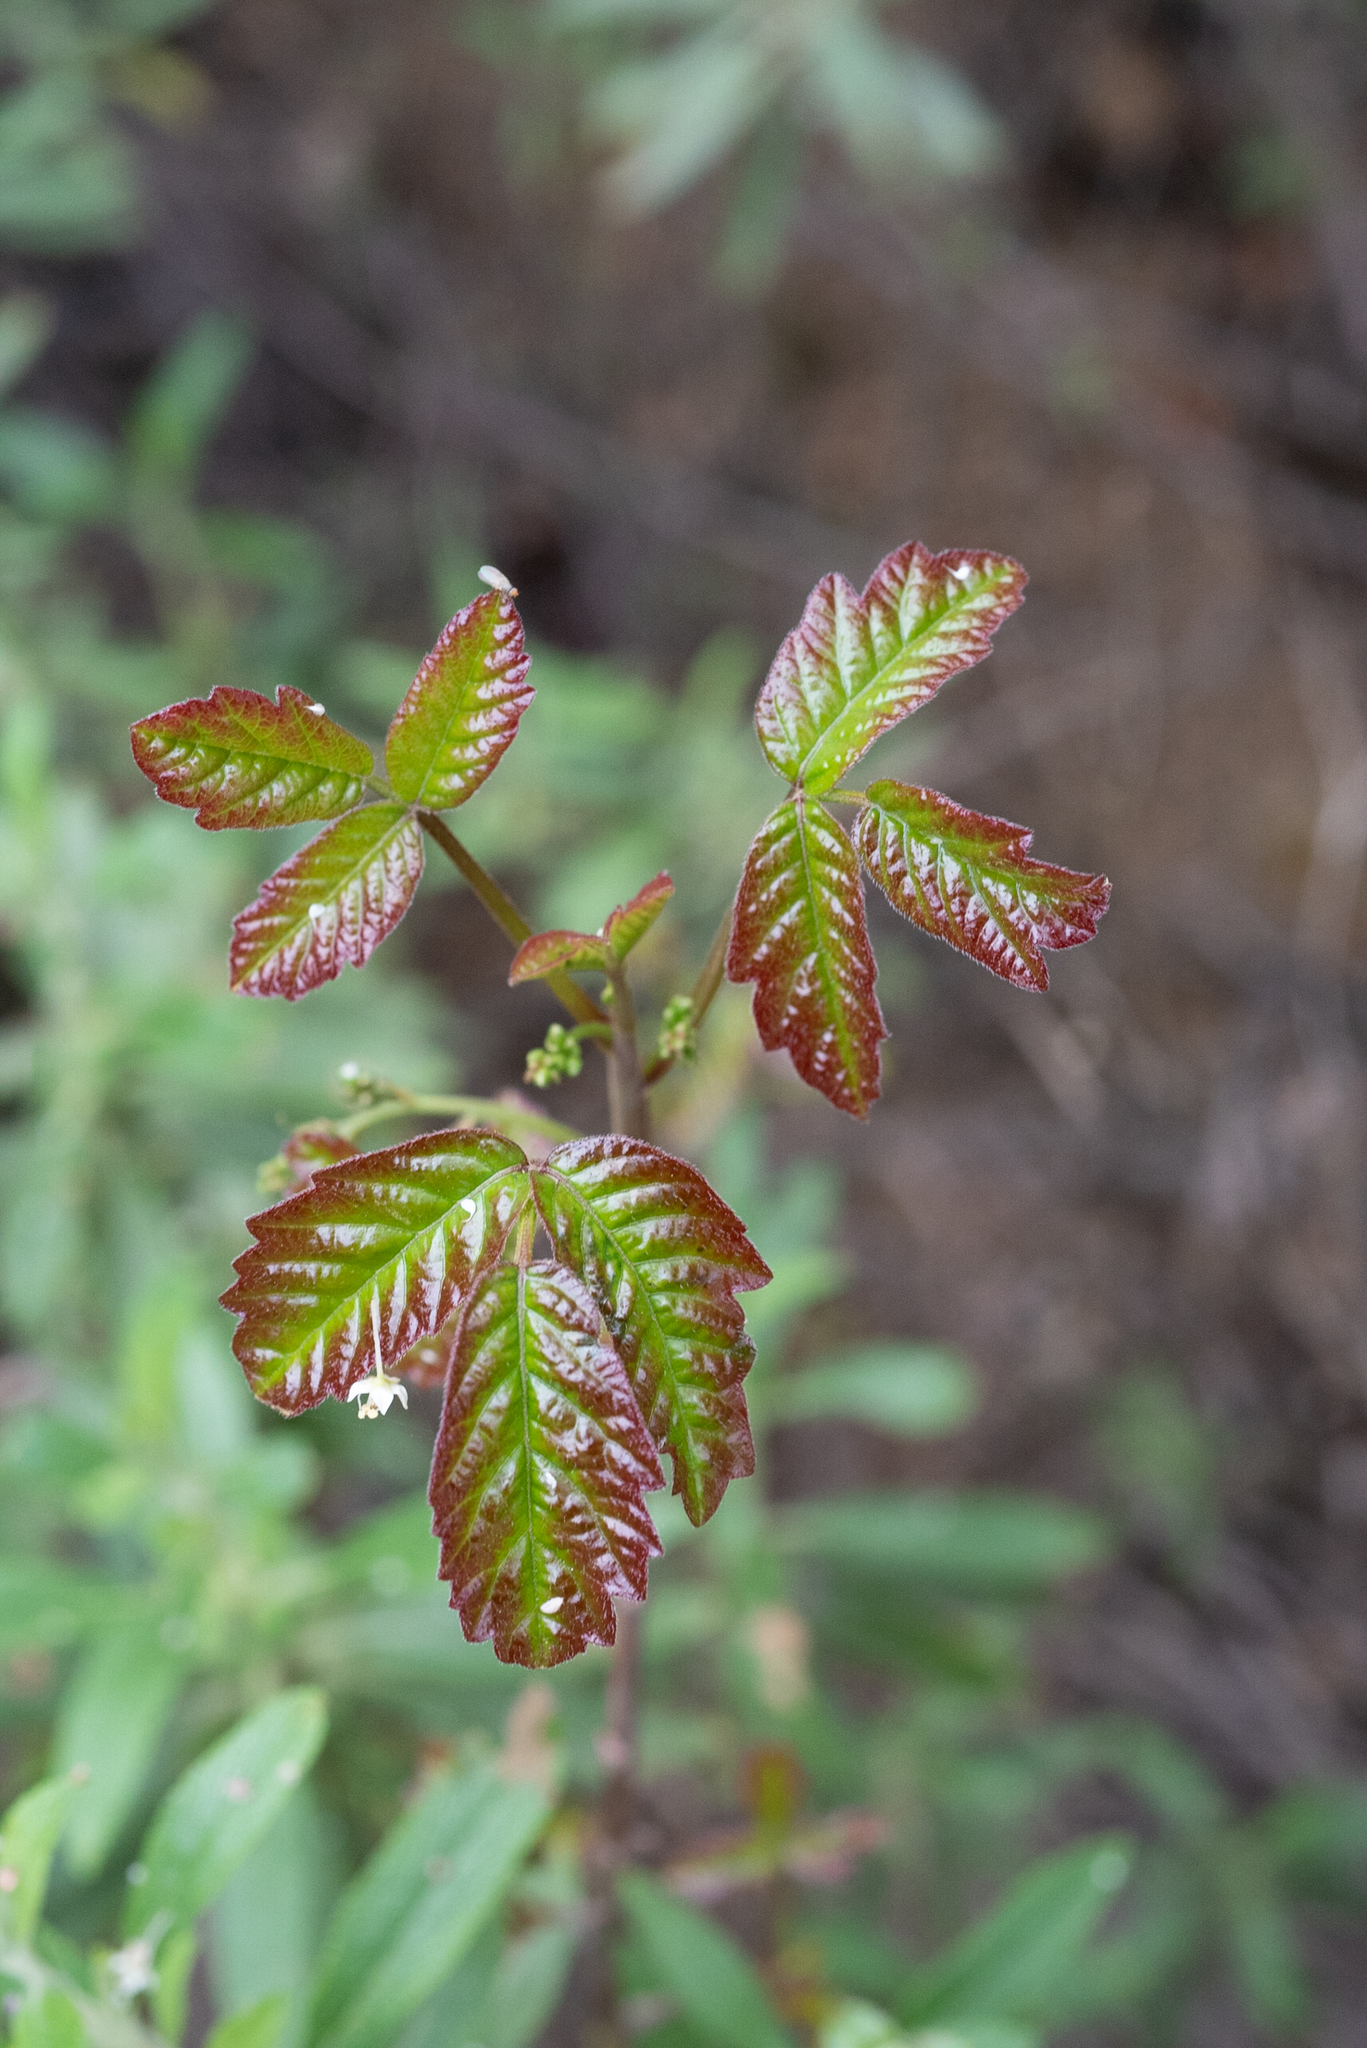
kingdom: Plantae
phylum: Tracheophyta
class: Magnoliopsida
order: Sapindales
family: Anacardiaceae
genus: Toxicodendron
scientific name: Toxicodendron diversilobum
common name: Pacific poison-oak
